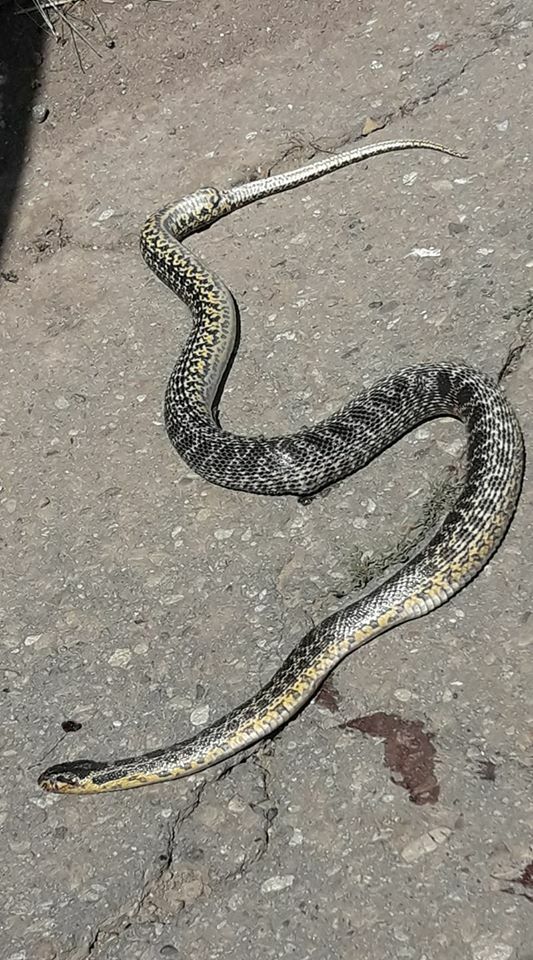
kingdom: Animalia
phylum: Chordata
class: Squamata
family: Colubridae
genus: Elaphe
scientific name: Elaphe sauromates
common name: Eastern four-lined ratsnake
